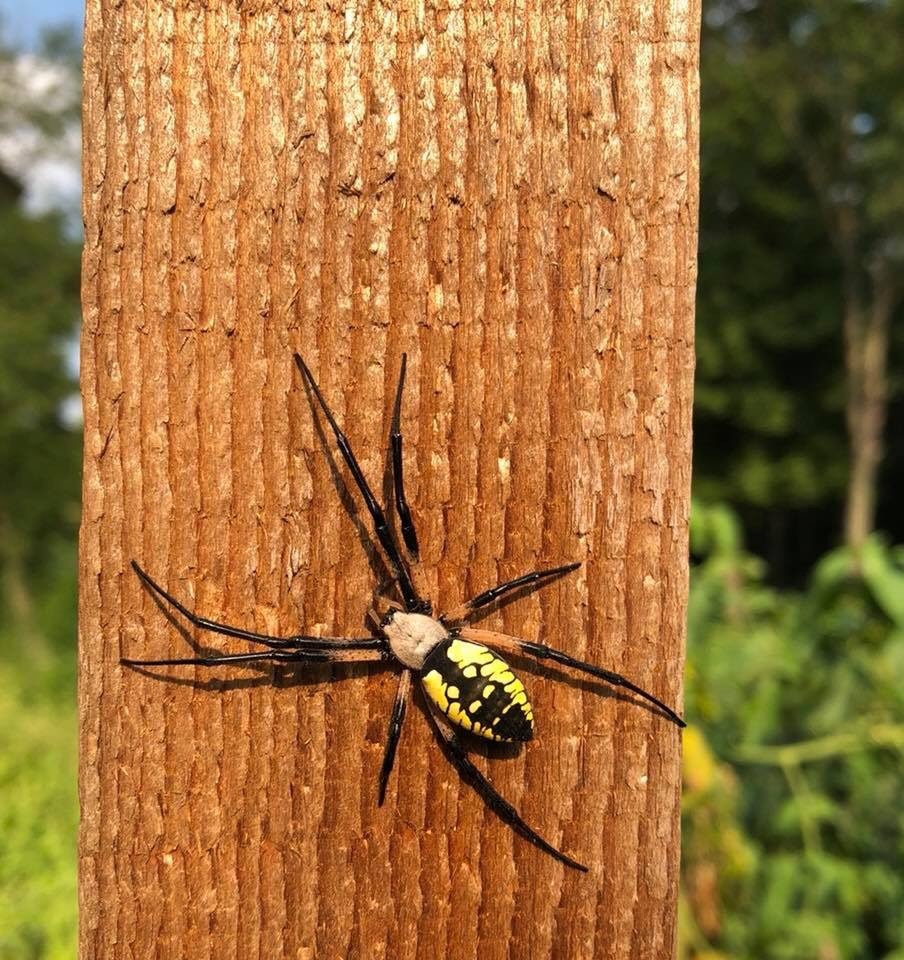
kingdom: Animalia
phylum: Arthropoda
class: Arachnida
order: Araneae
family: Araneidae
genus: Argiope
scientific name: Argiope aurantia
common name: Orb weavers
